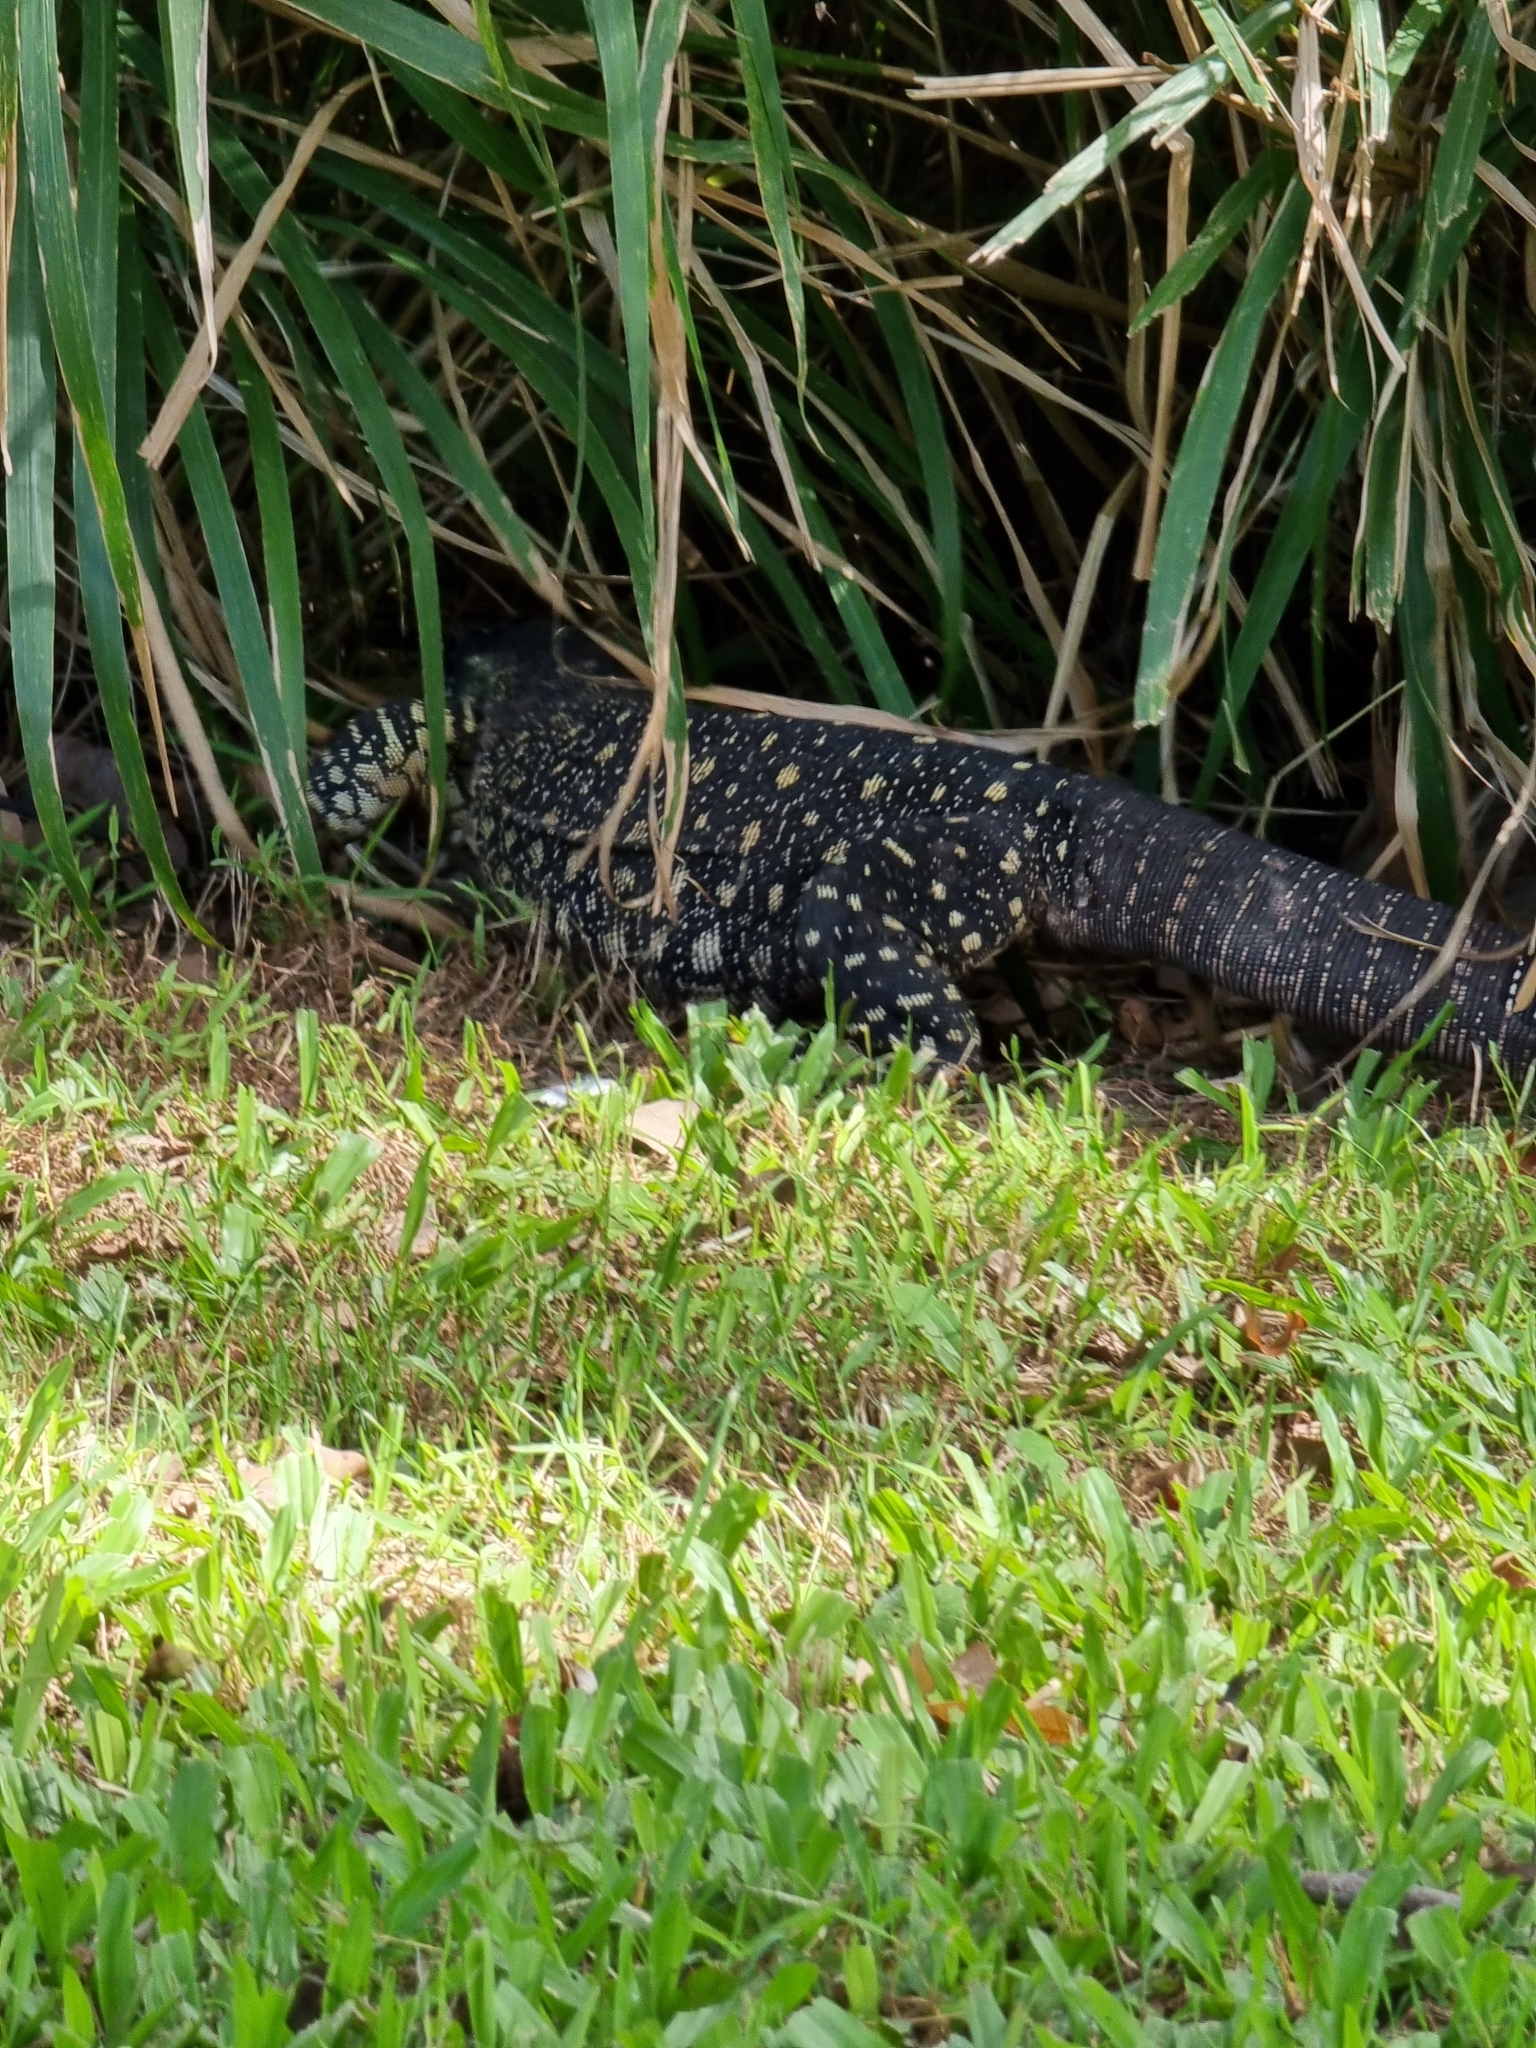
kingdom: Animalia
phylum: Chordata
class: Squamata
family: Varanidae
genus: Varanus
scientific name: Varanus varius
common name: Lace monitor
